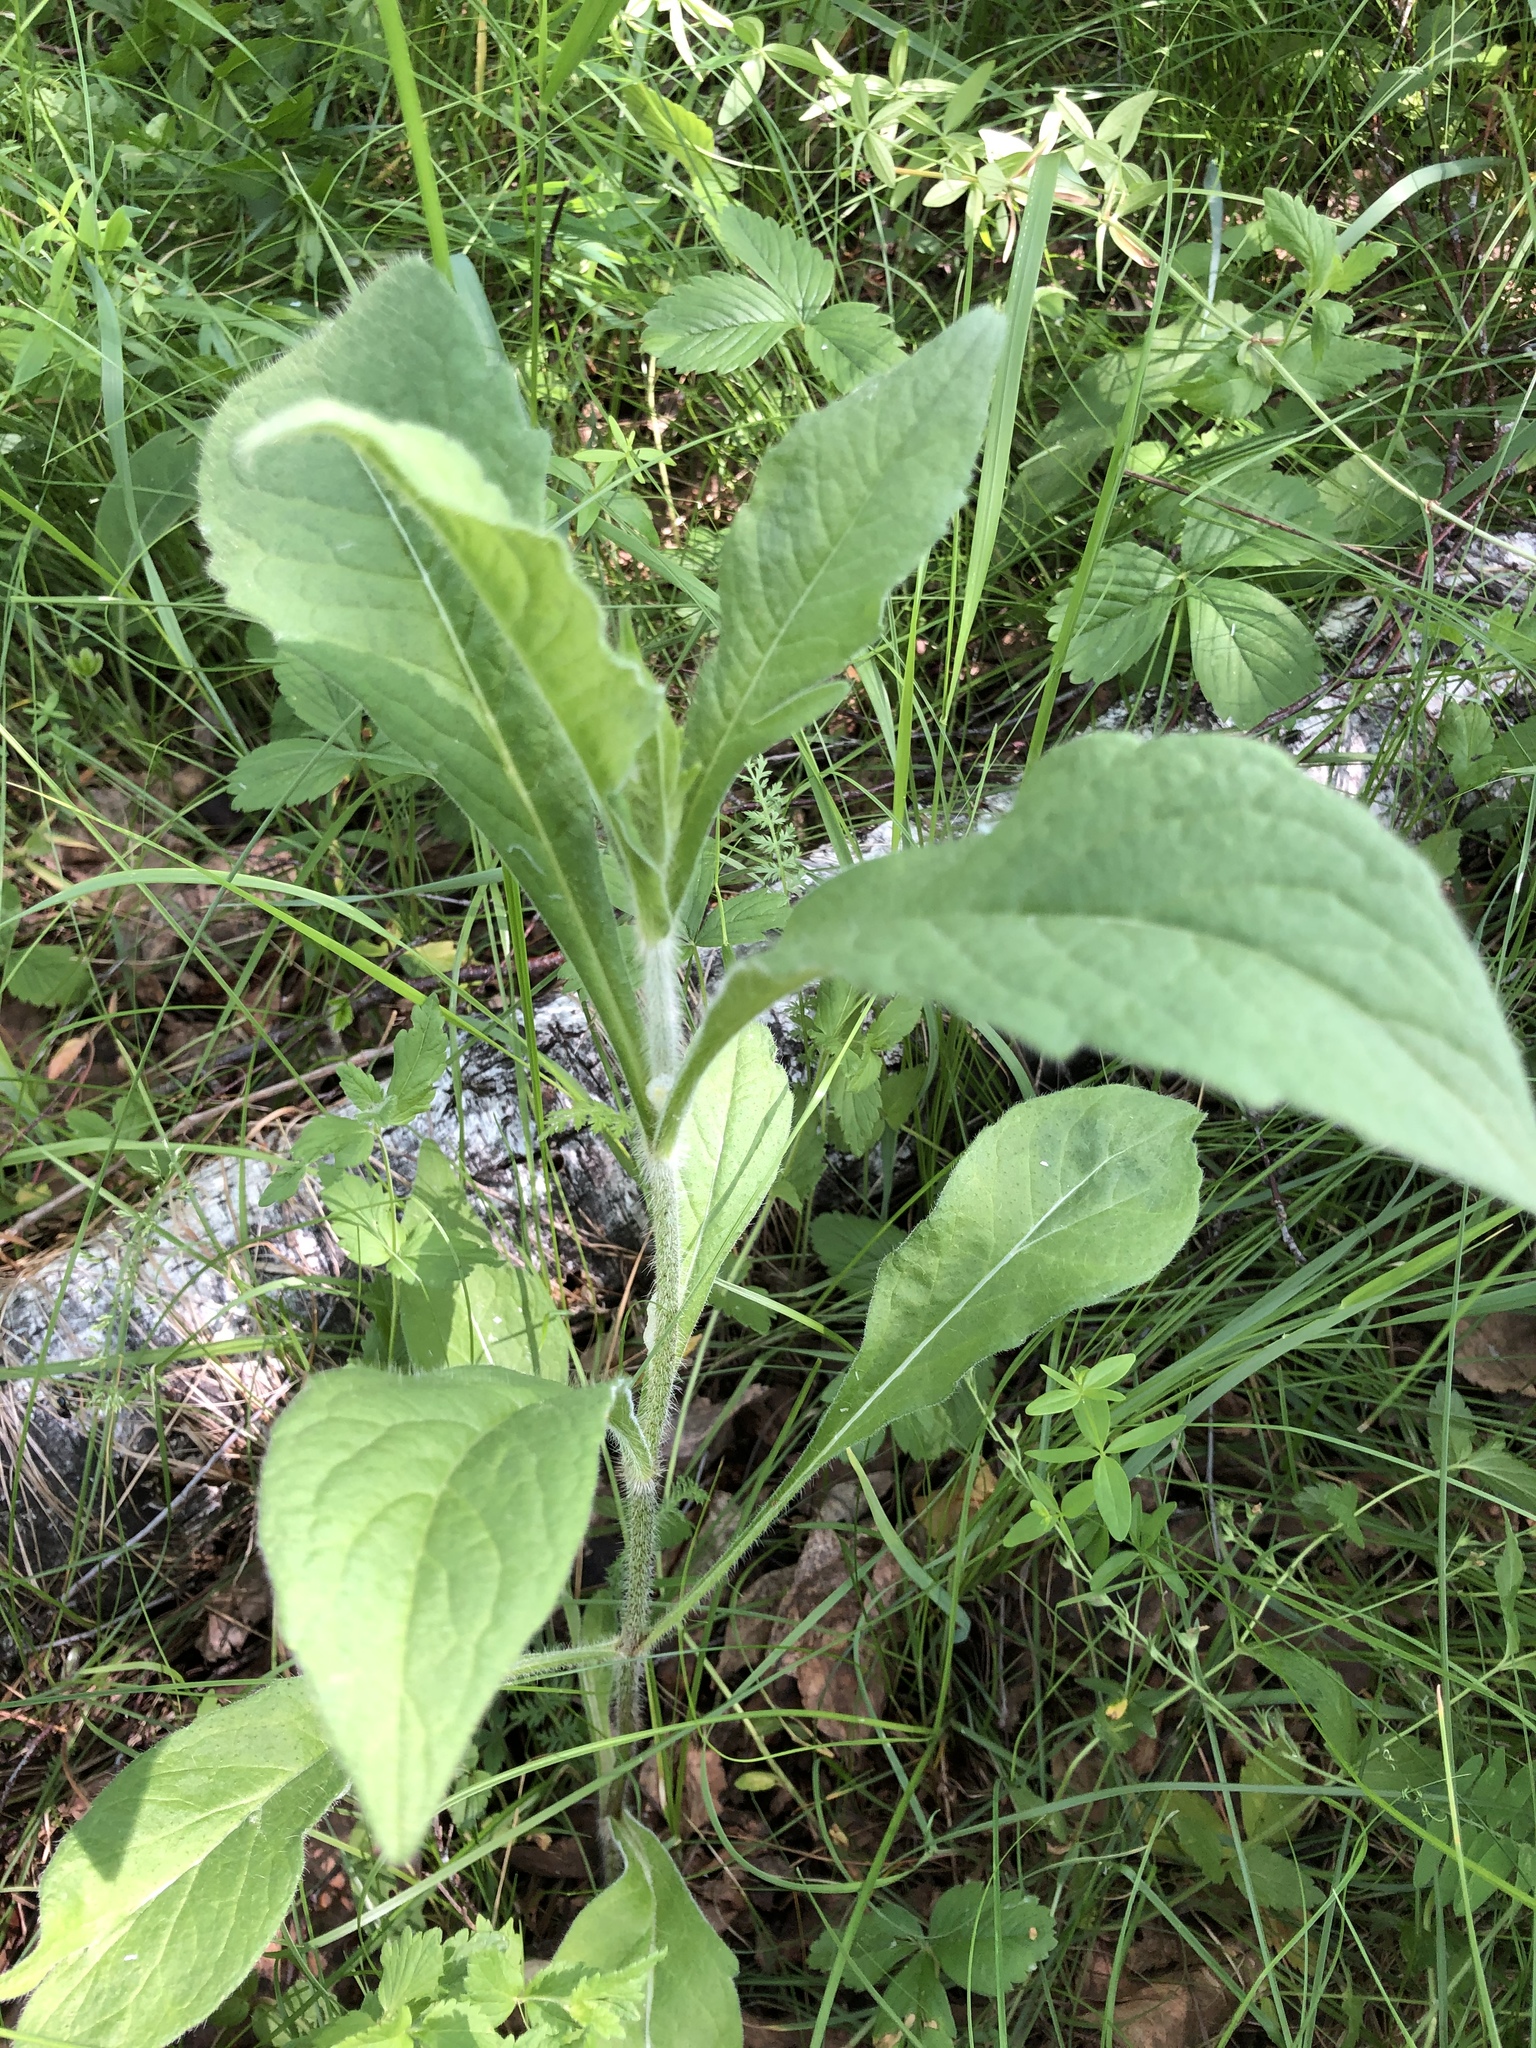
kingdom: Plantae
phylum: Tracheophyta
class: Magnoliopsida
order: Dipsacales
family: Caprifoliaceae
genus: Knautia
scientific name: Knautia arvensis
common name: Field scabiosa
